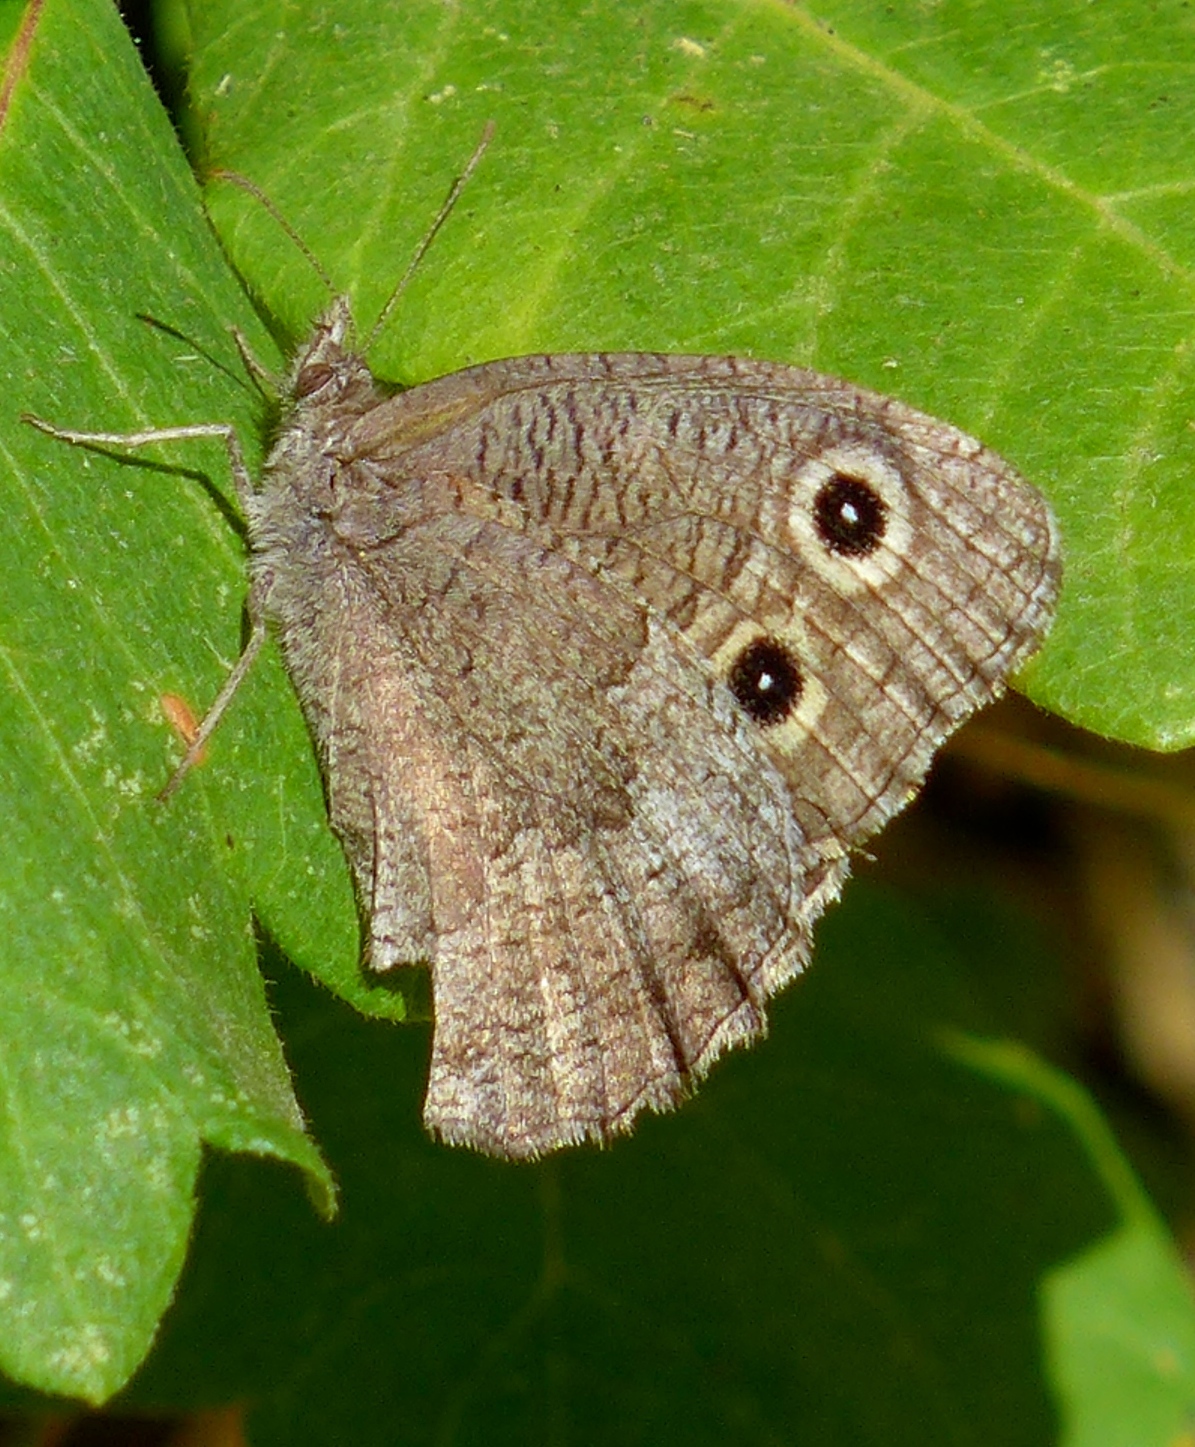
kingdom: Animalia
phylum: Arthropoda
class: Insecta
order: Lepidoptera
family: Nymphalidae
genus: Cercyonis
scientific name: Cercyonis sthenele
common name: Great basin wood-nymph
